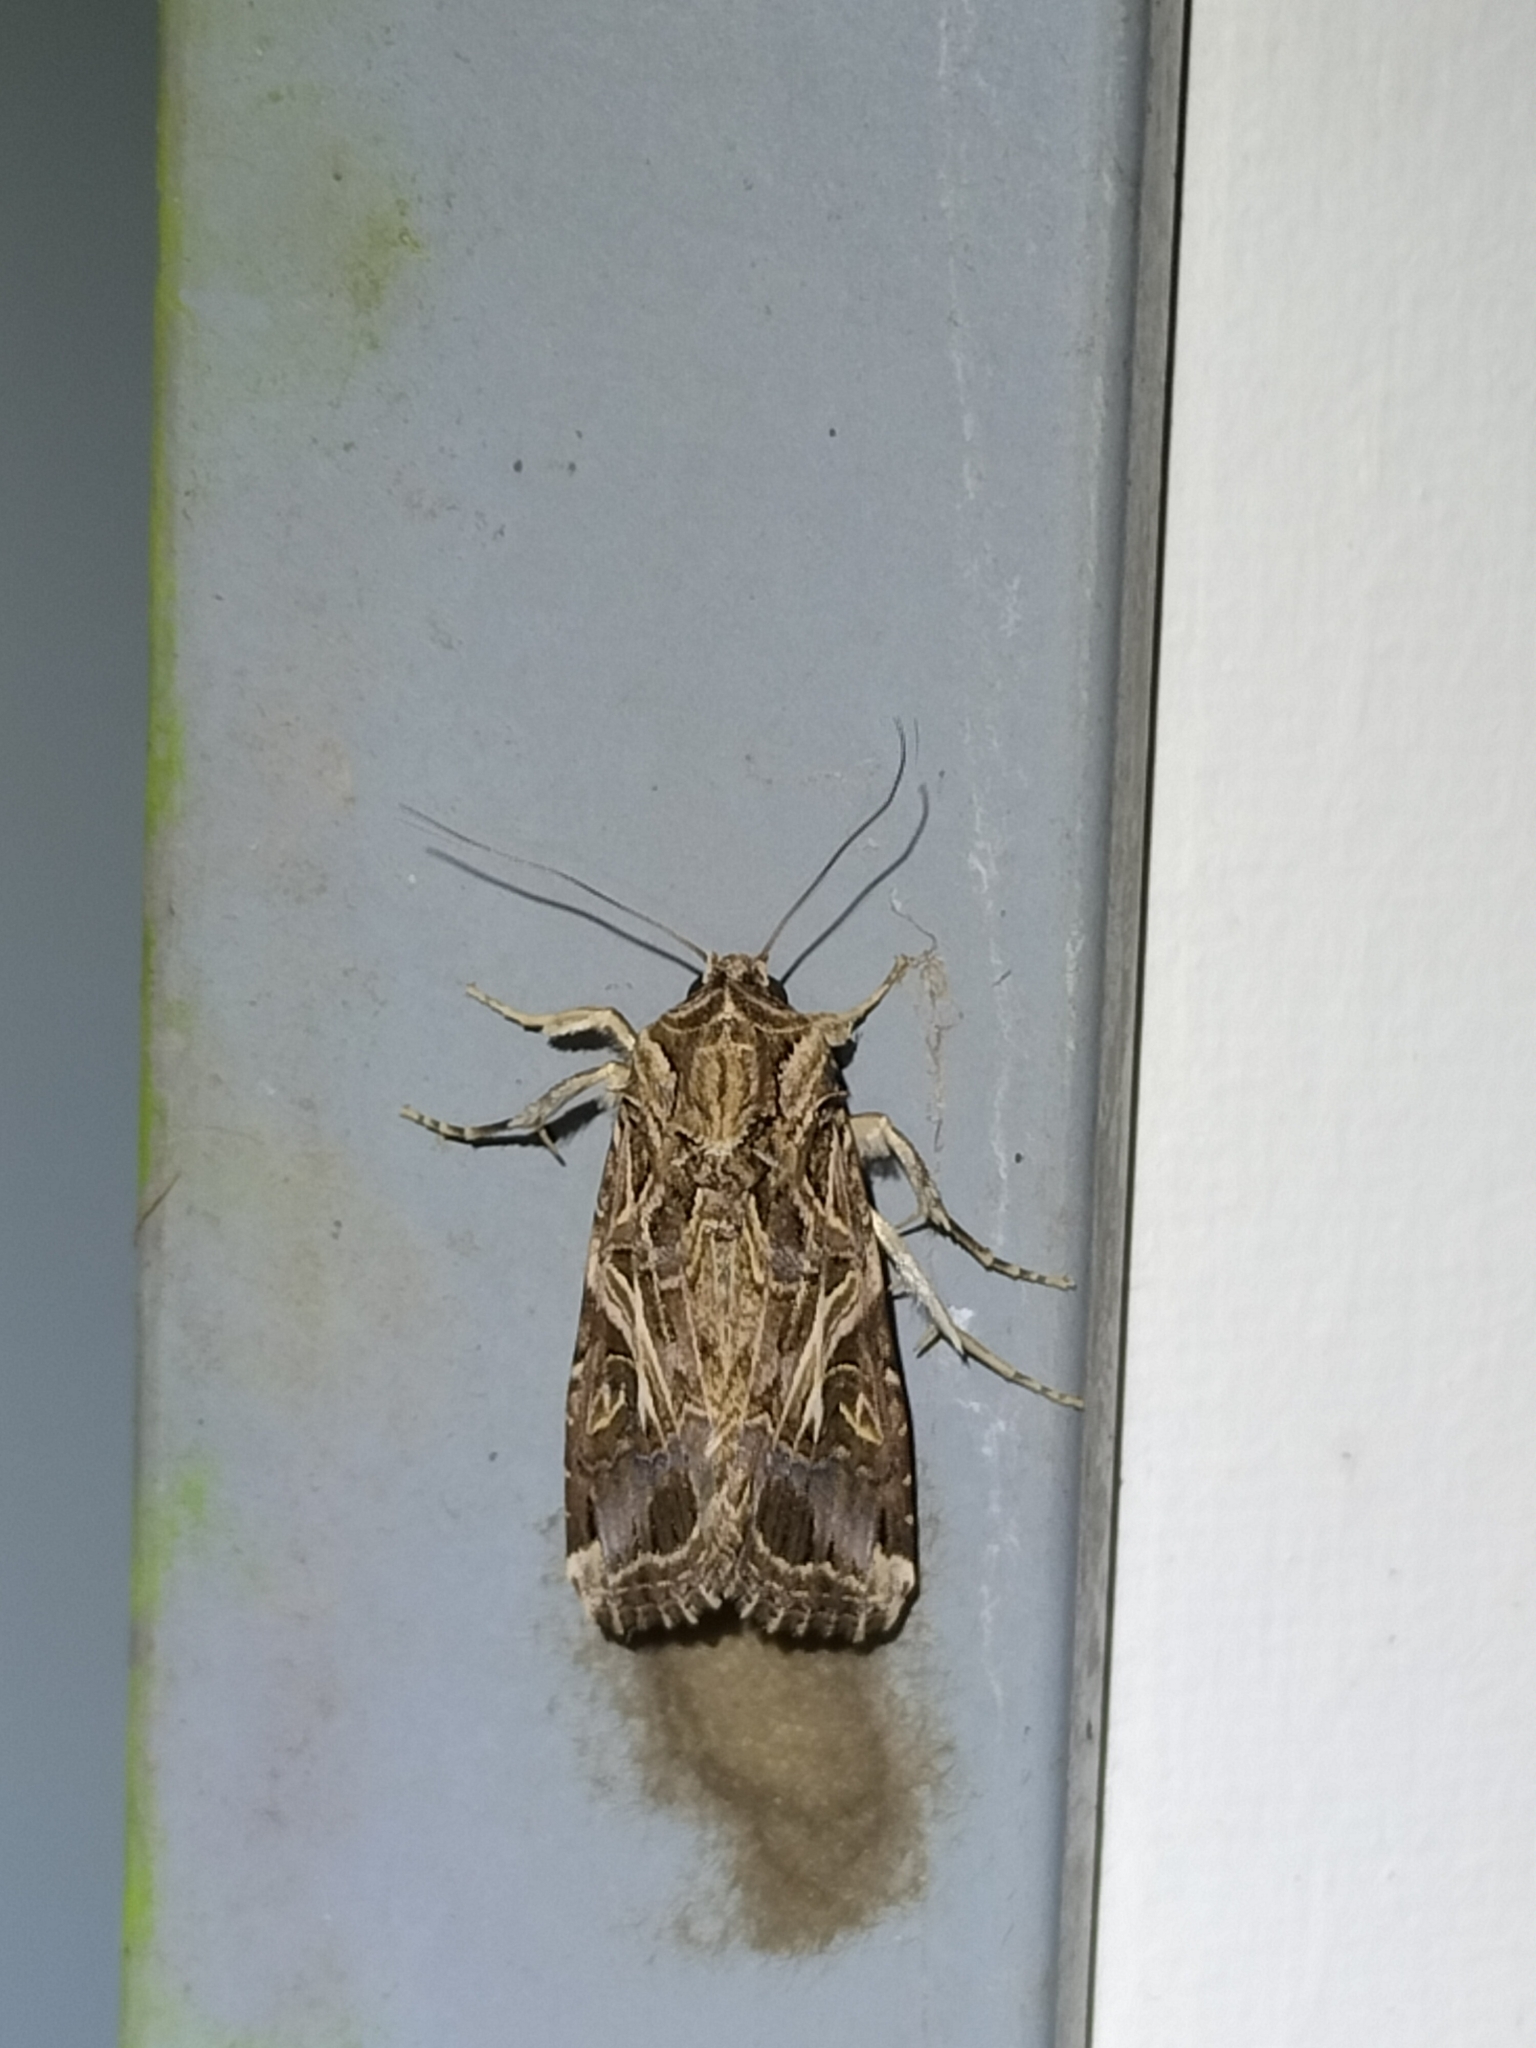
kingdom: Animalia
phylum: Arthropoda
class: Insecta
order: Lepidoptera
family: Noctuidae
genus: Spodoptera
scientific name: Spodoptera litura
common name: Asian cotton leafworm
